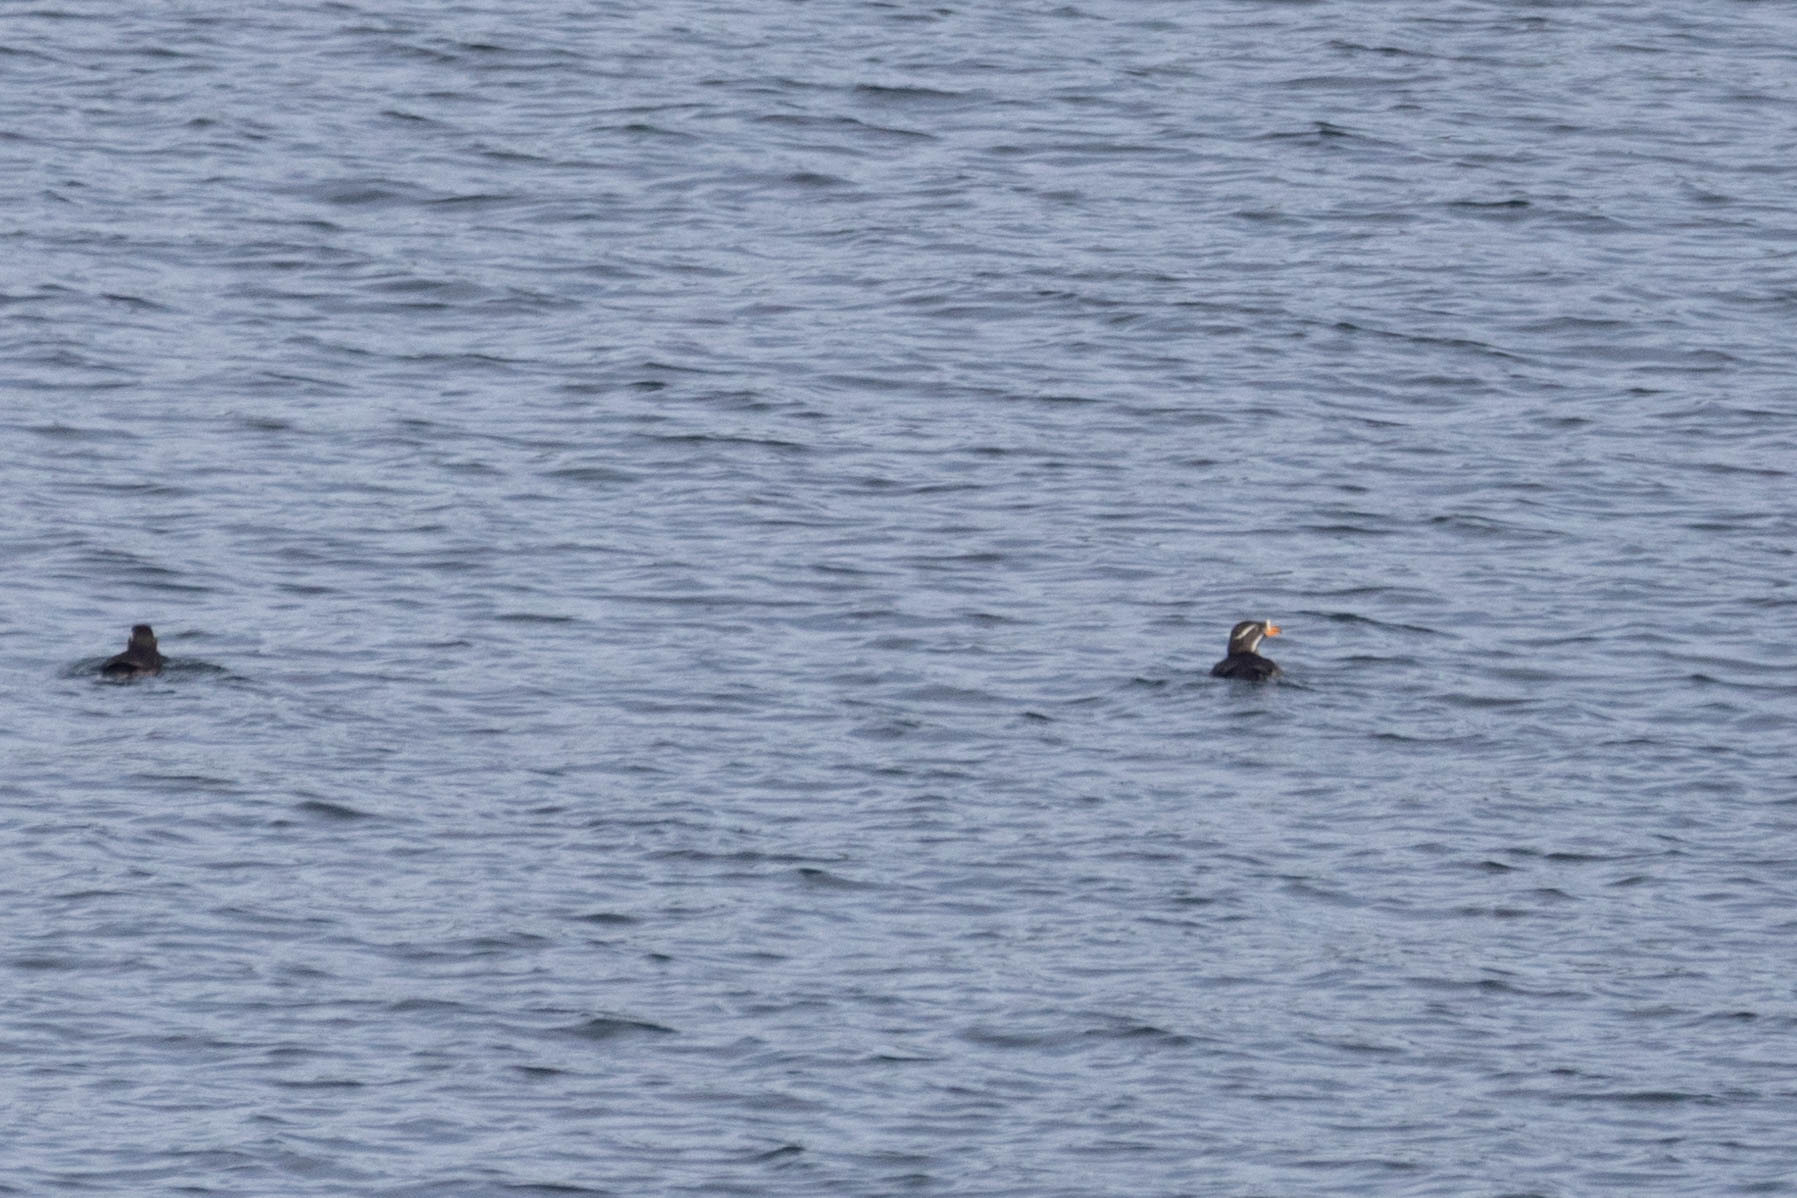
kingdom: Animalia
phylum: Chordata
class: Aves
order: Charadriiformes
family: Alcidae
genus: Cerorhinca
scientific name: Cerorhinca monocerata
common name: Rhinoceros auklet
